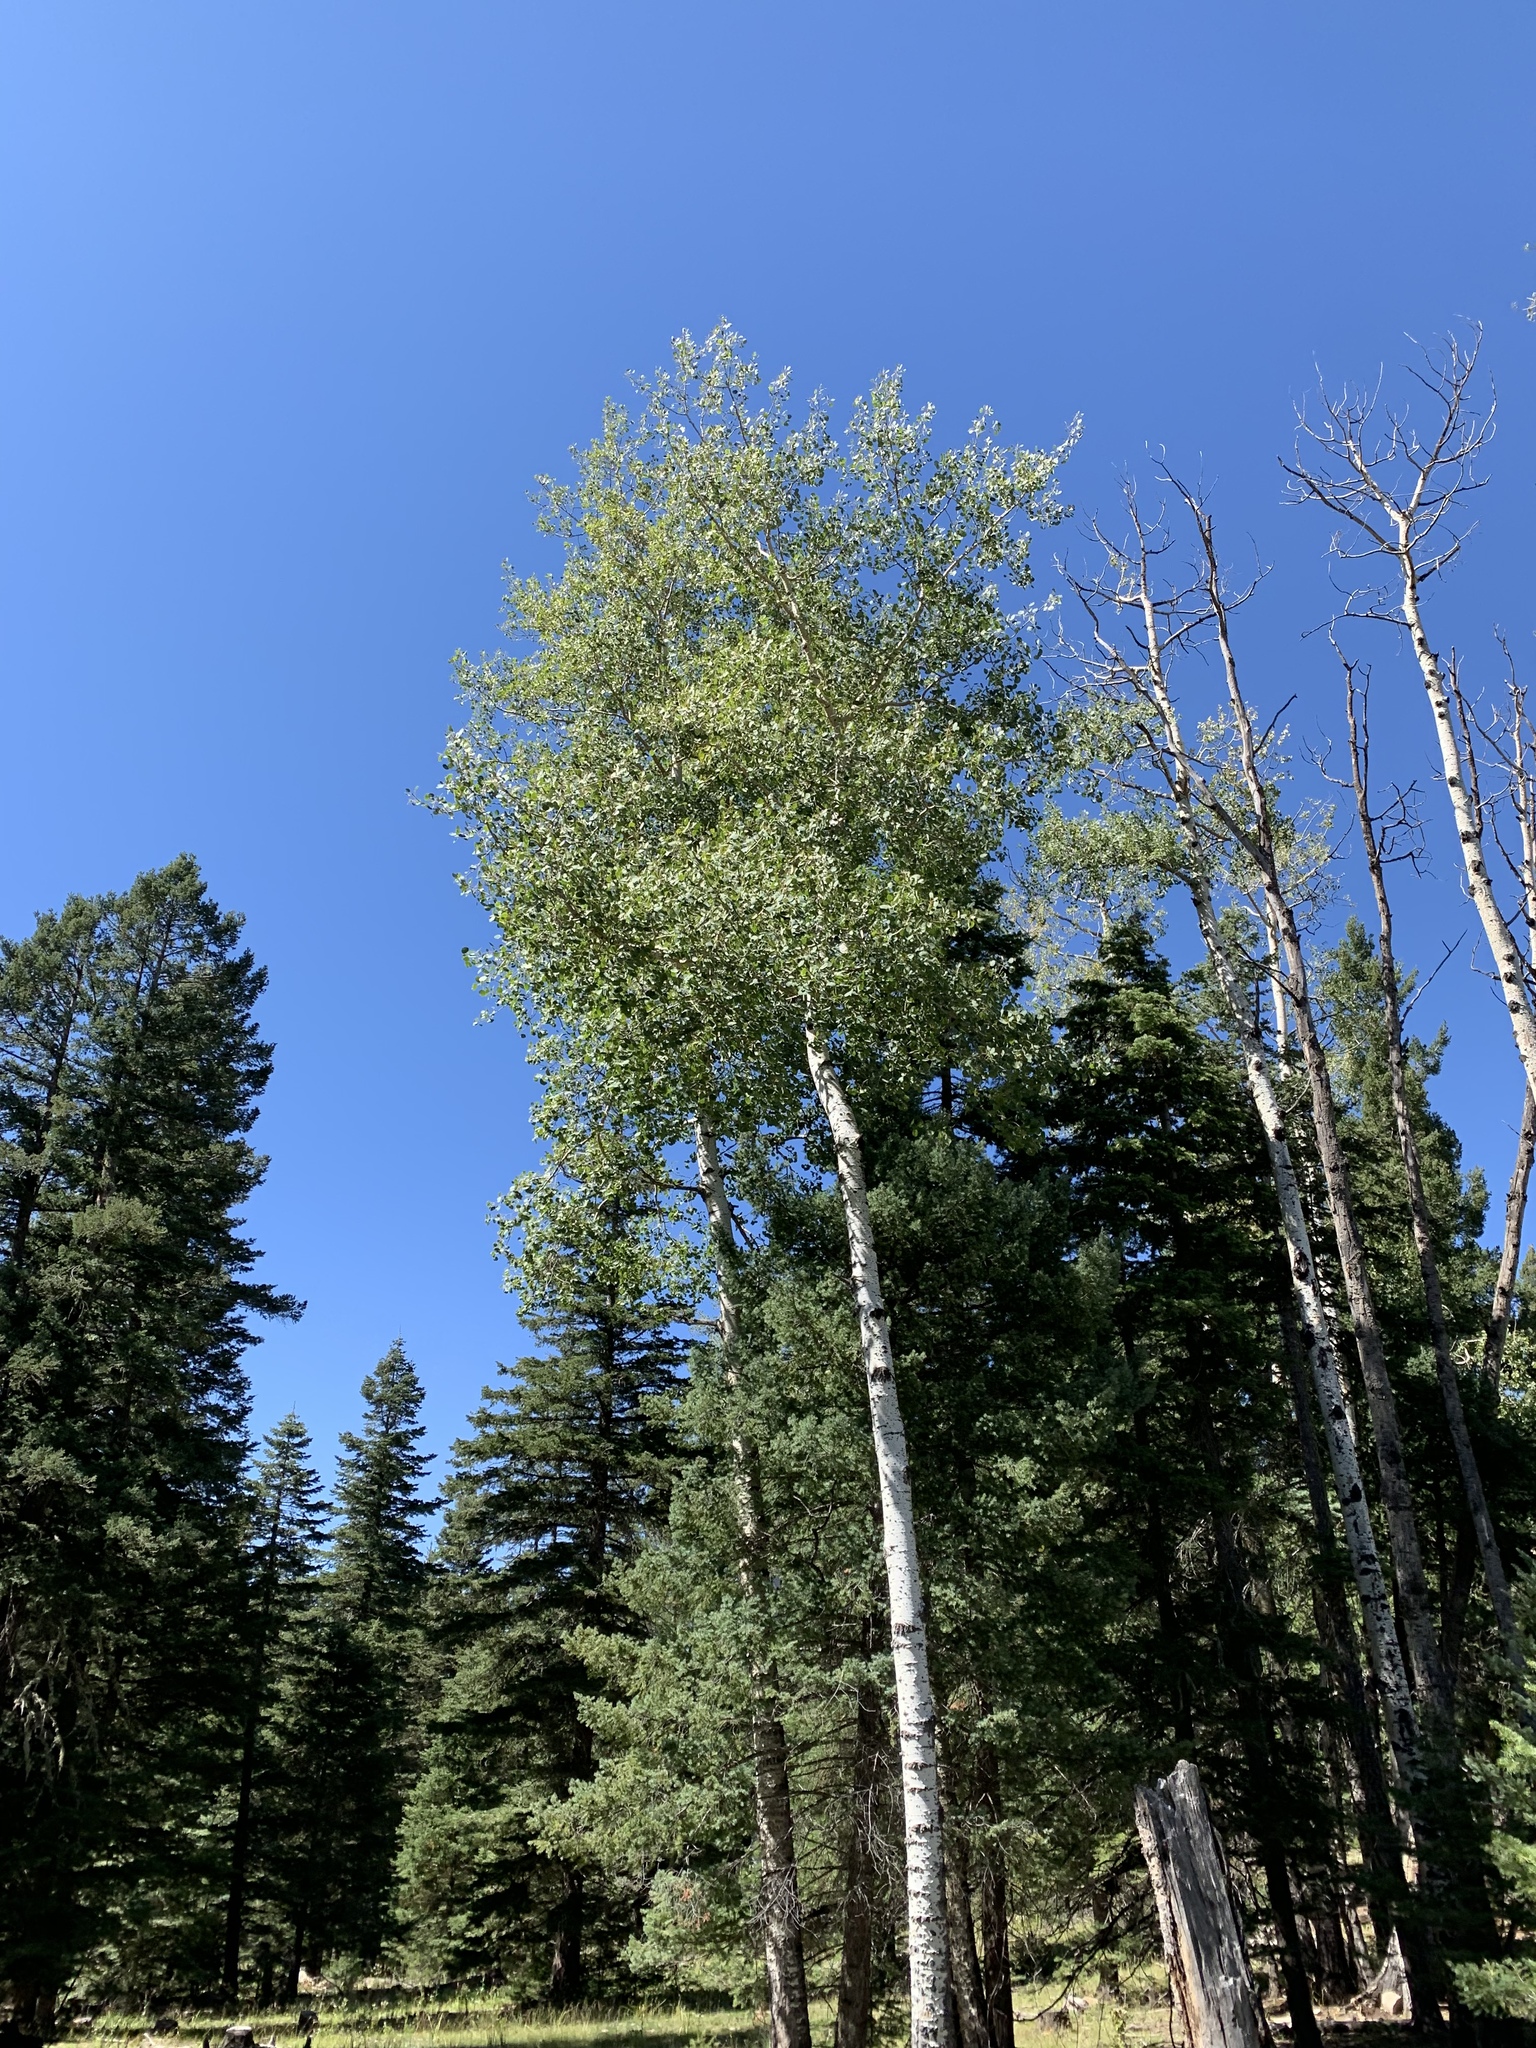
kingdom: Plantae
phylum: Tracheophyta
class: Magnoliopsida
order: Malpighiales
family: Salicaceae
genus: Populus
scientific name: Populus tremuloides
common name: Quaking aspen
